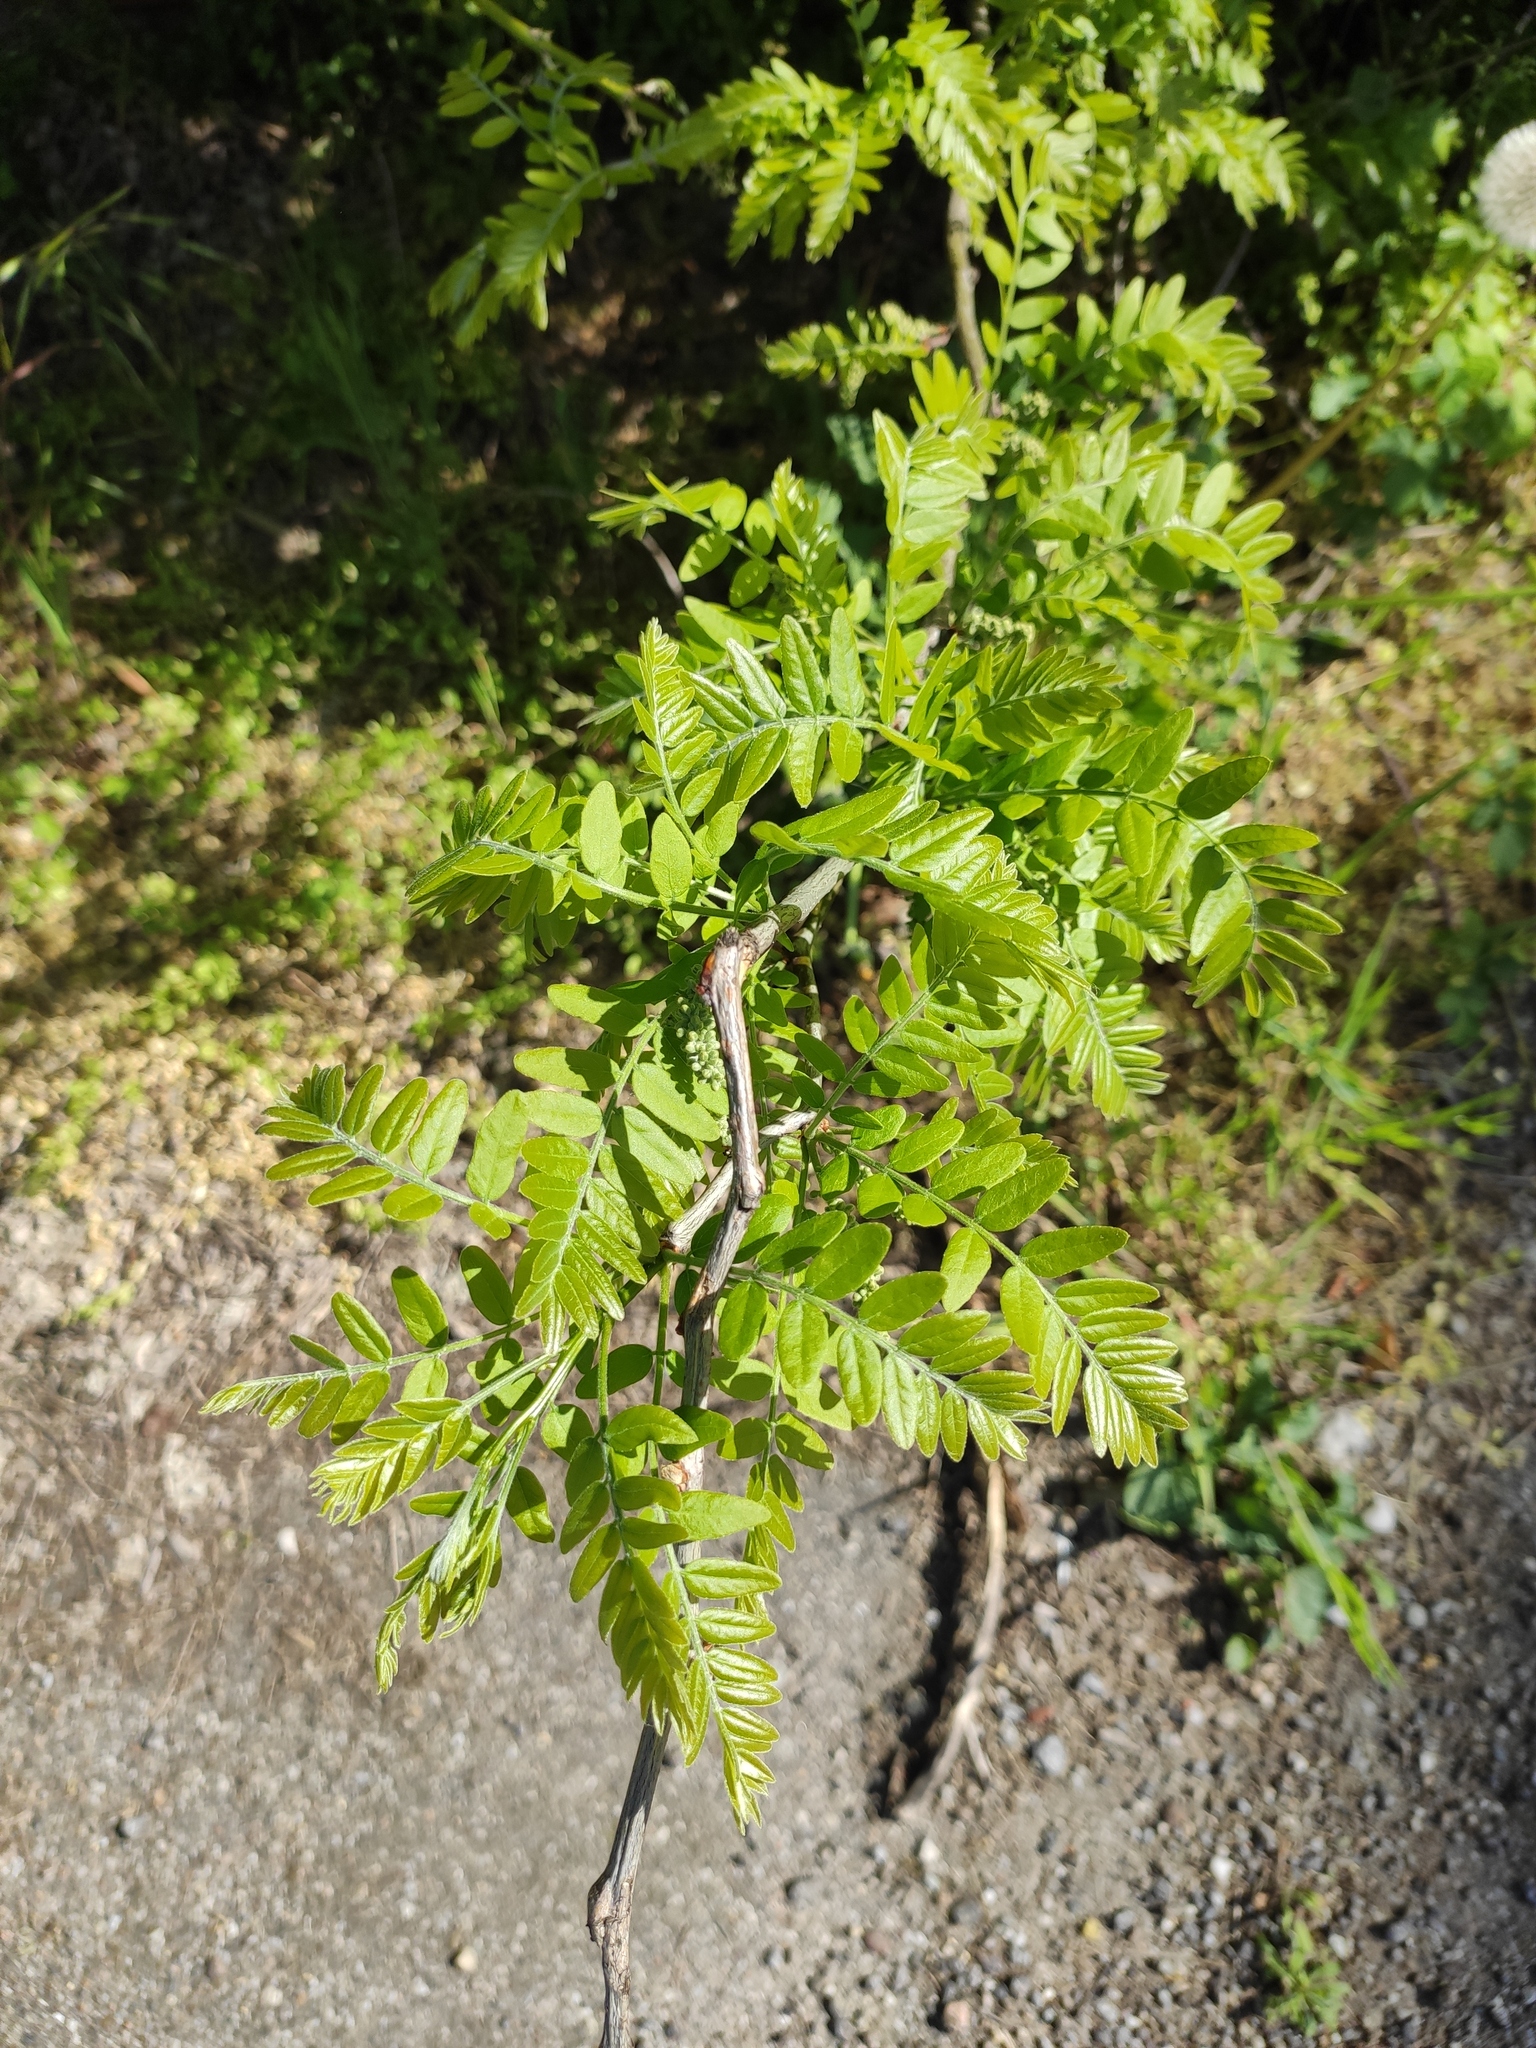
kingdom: Plantae
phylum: Tracheophyta
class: Magnoliopsida
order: Fabales
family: Fabaceae
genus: Gleditsia
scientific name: Gleditsia triacanthos
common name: Common honeylocust
